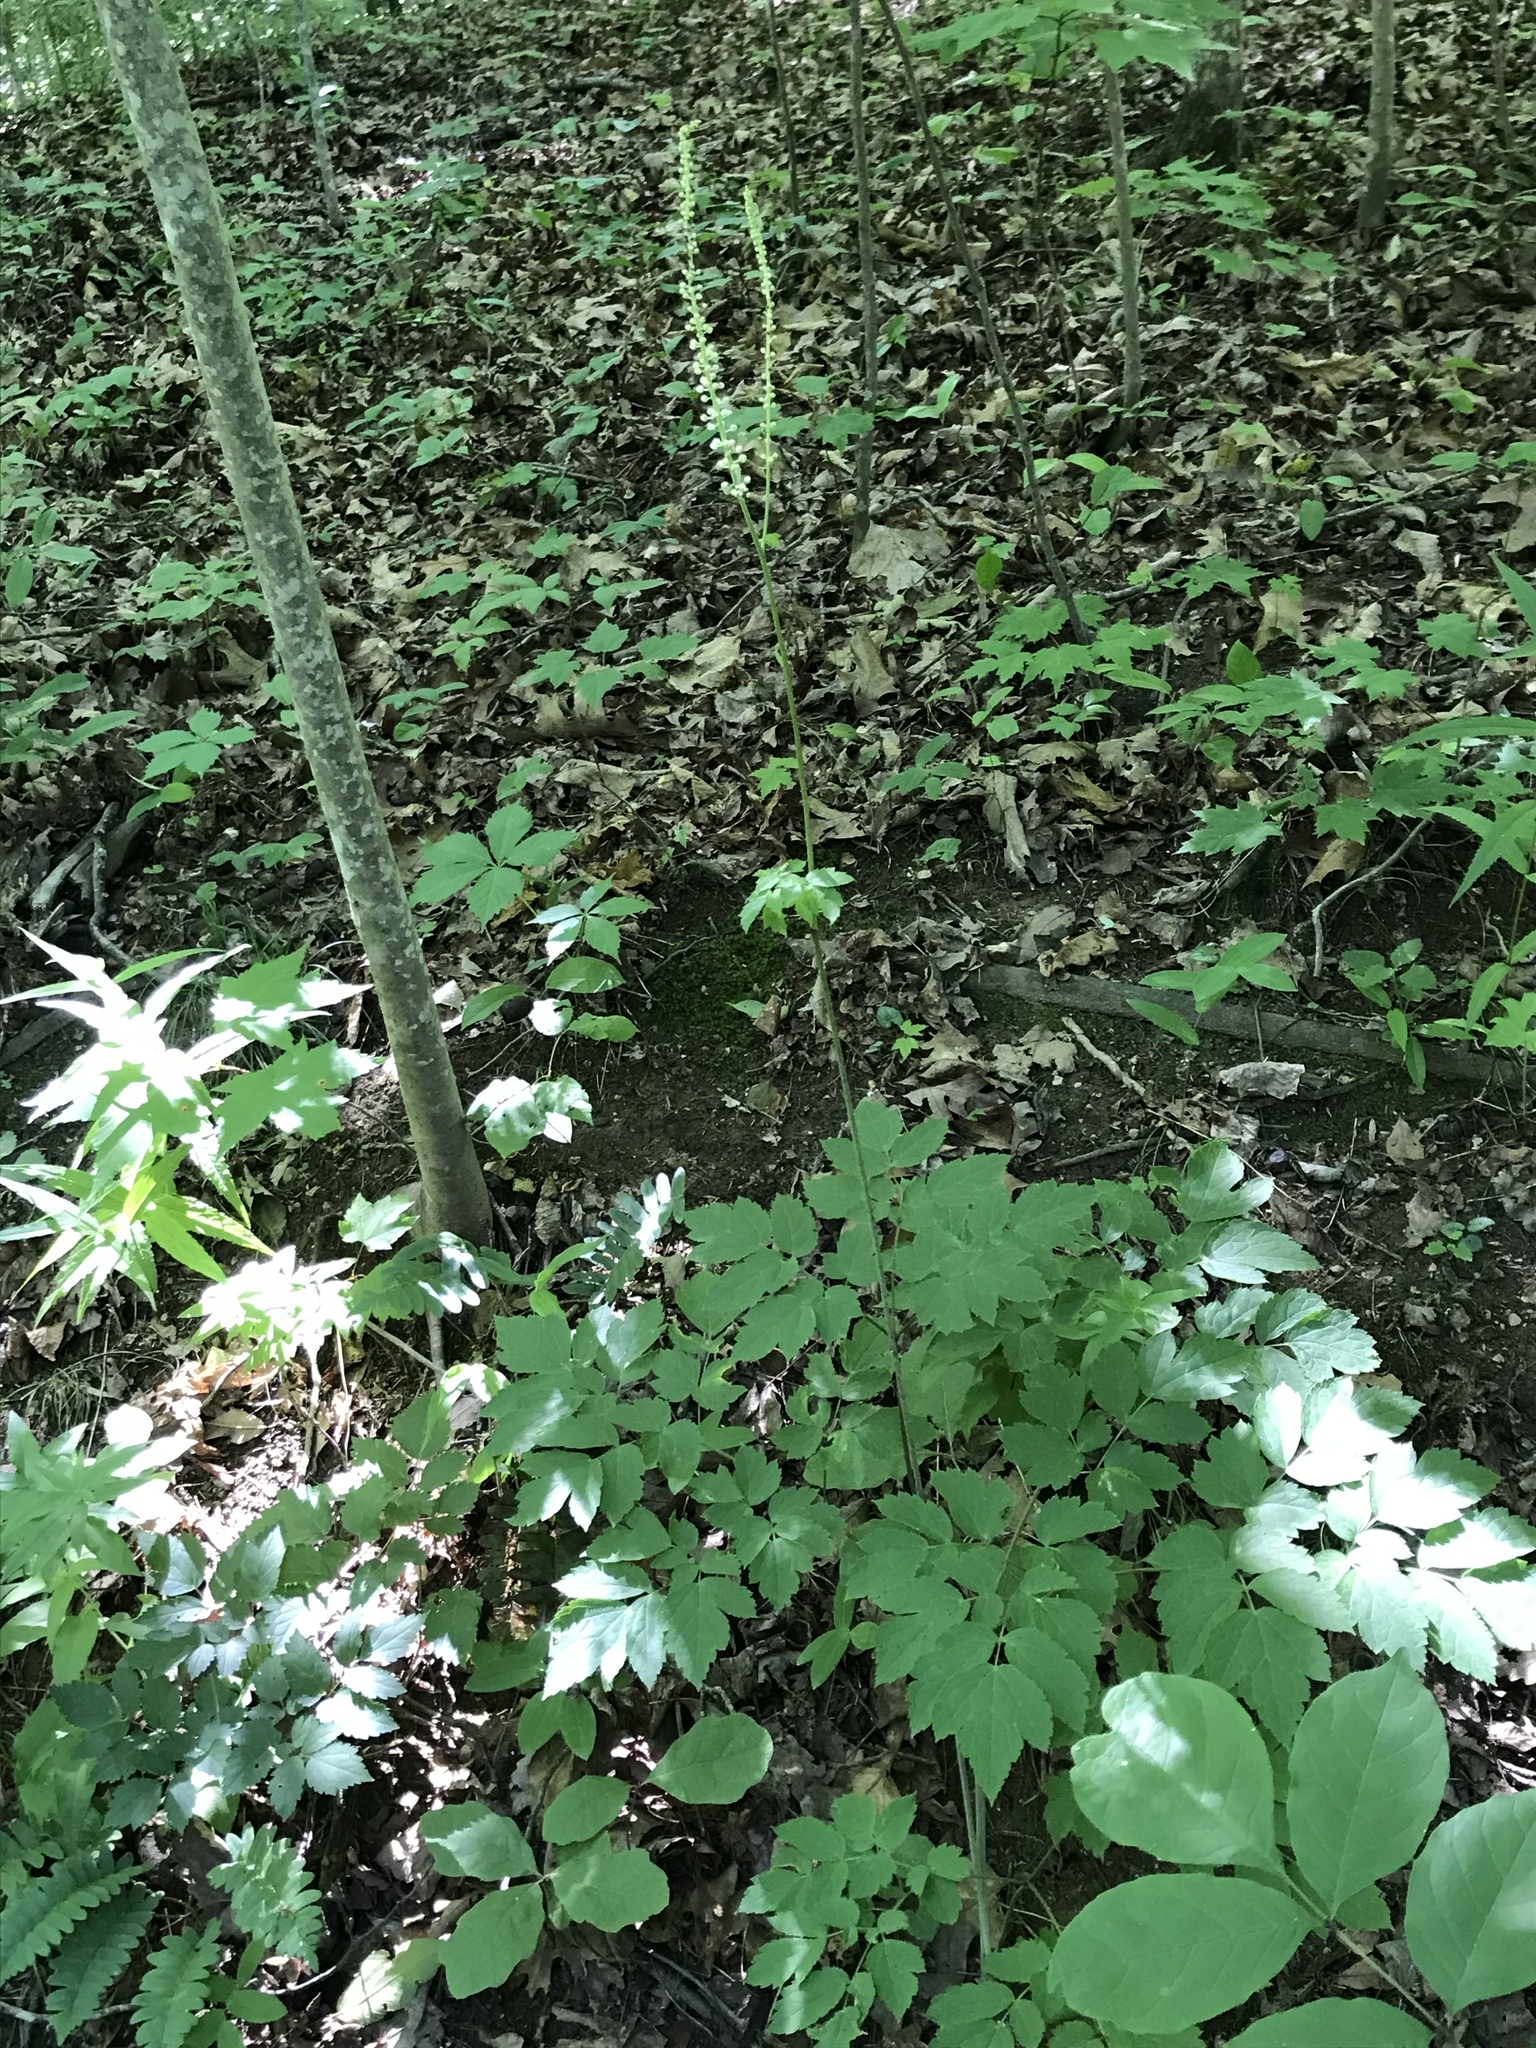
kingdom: Plantae
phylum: Tracheophyta
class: Magnoliopsida
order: Ranunculales
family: Ranunculaceae
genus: Actaea
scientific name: Actaea racemosa
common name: Black cohosh
